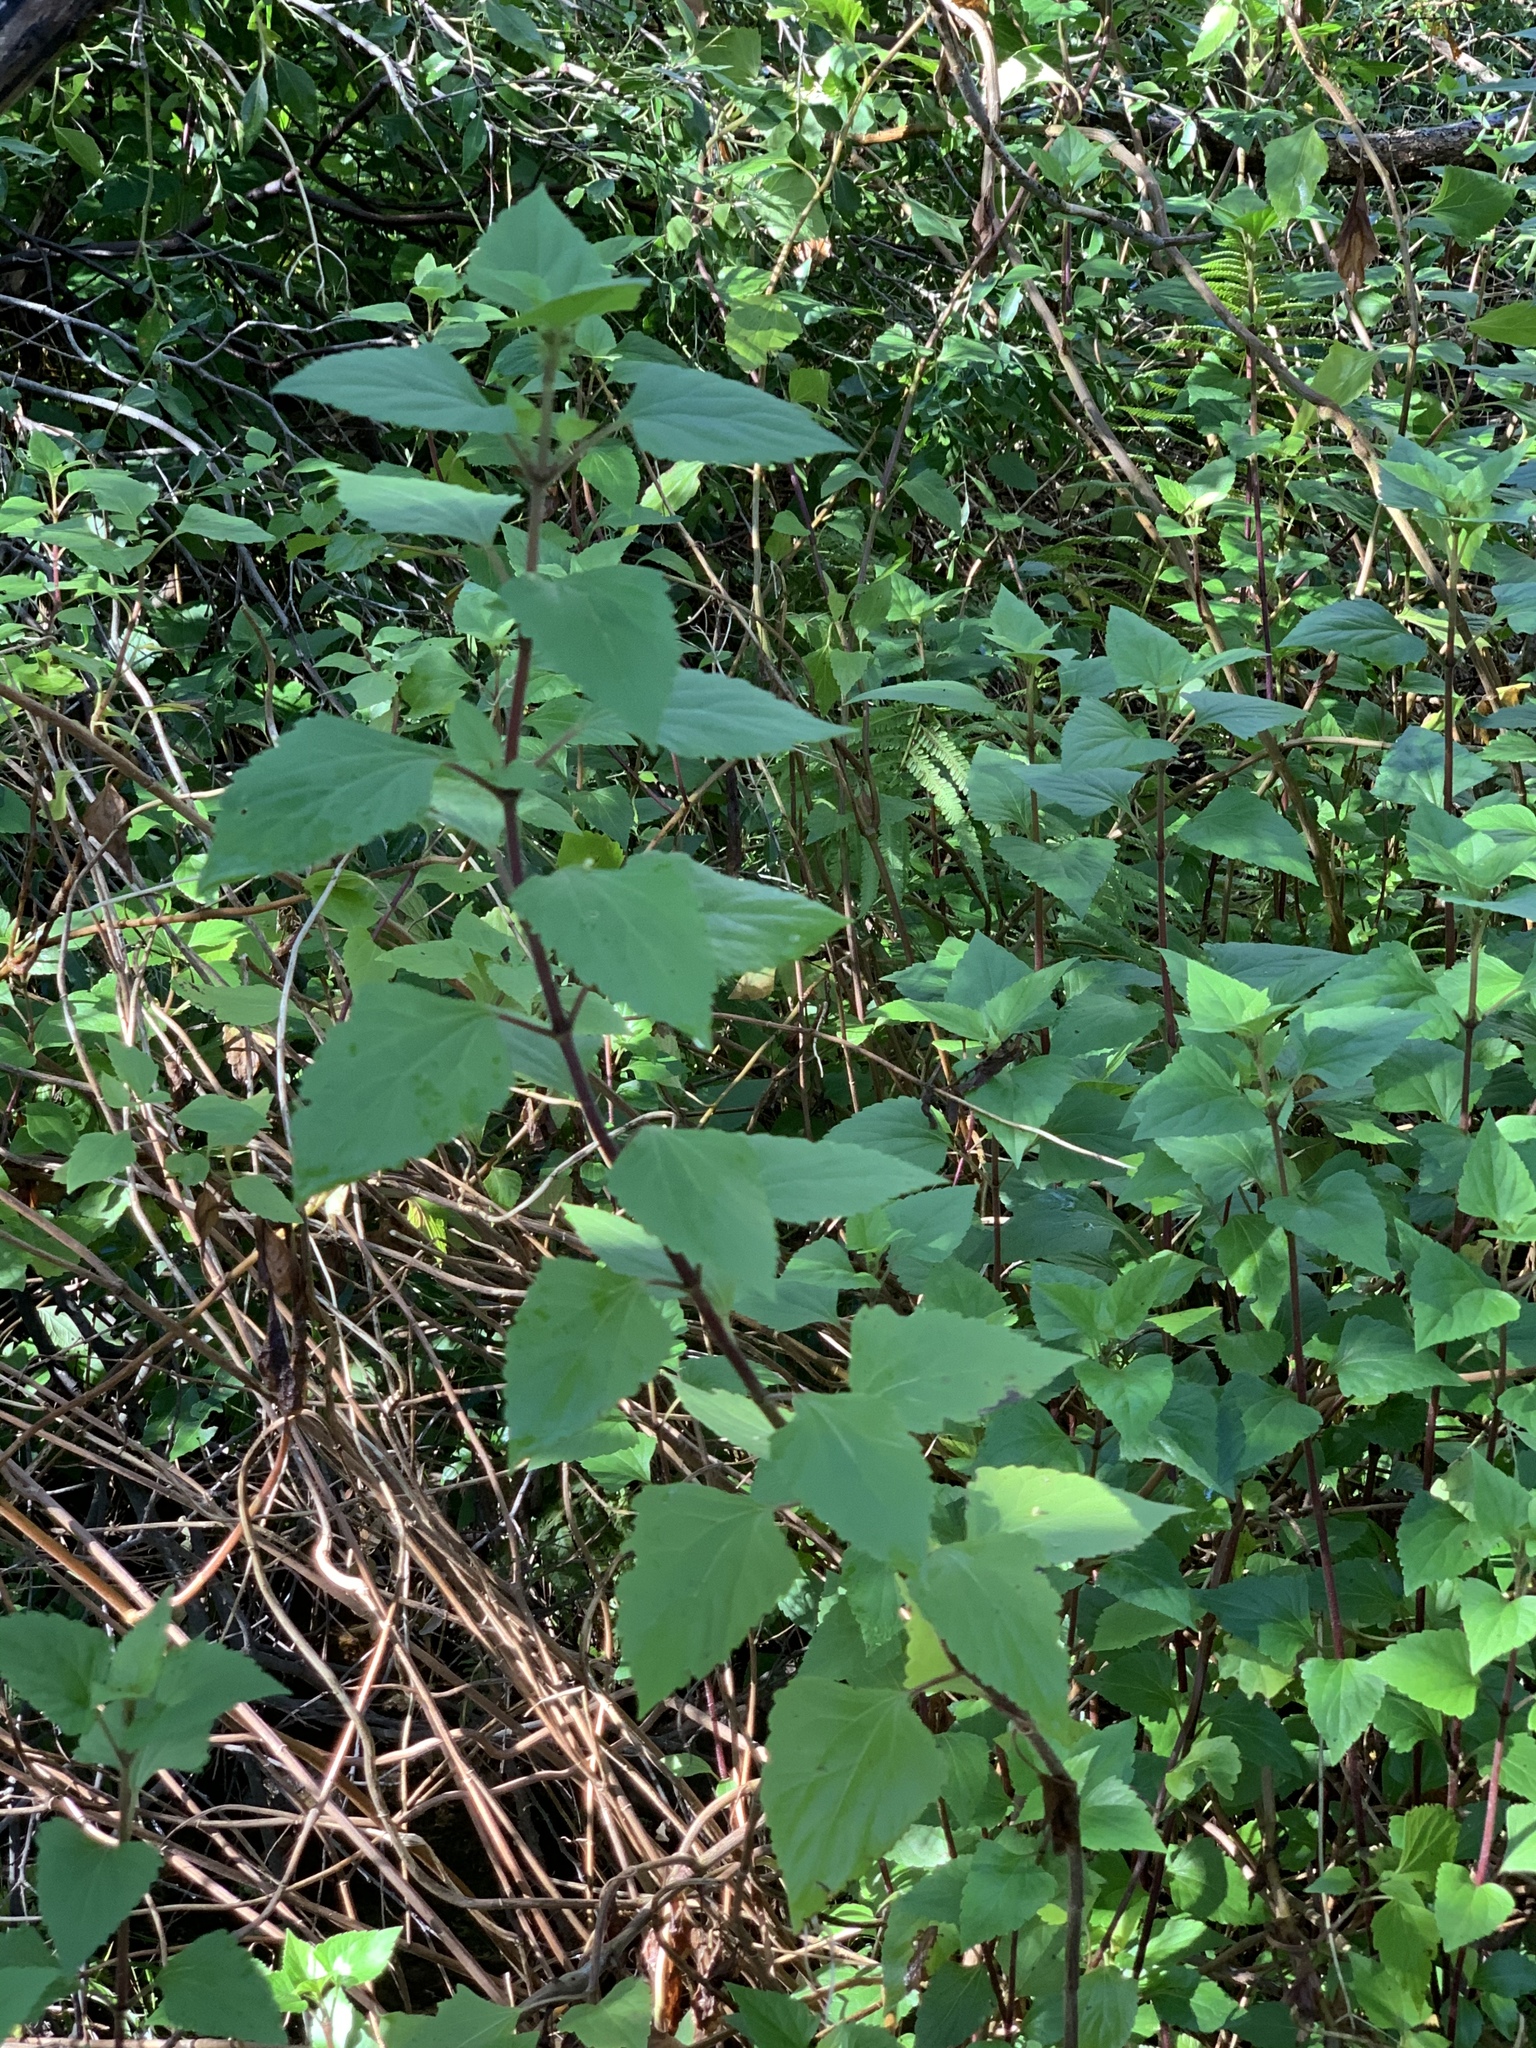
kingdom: Plantae
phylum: Tracheophyta
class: Magnoliopsida
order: Asterales
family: Asteraceae
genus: Ageratina
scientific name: Ageratina adenophora
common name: Sticky snakeroot
